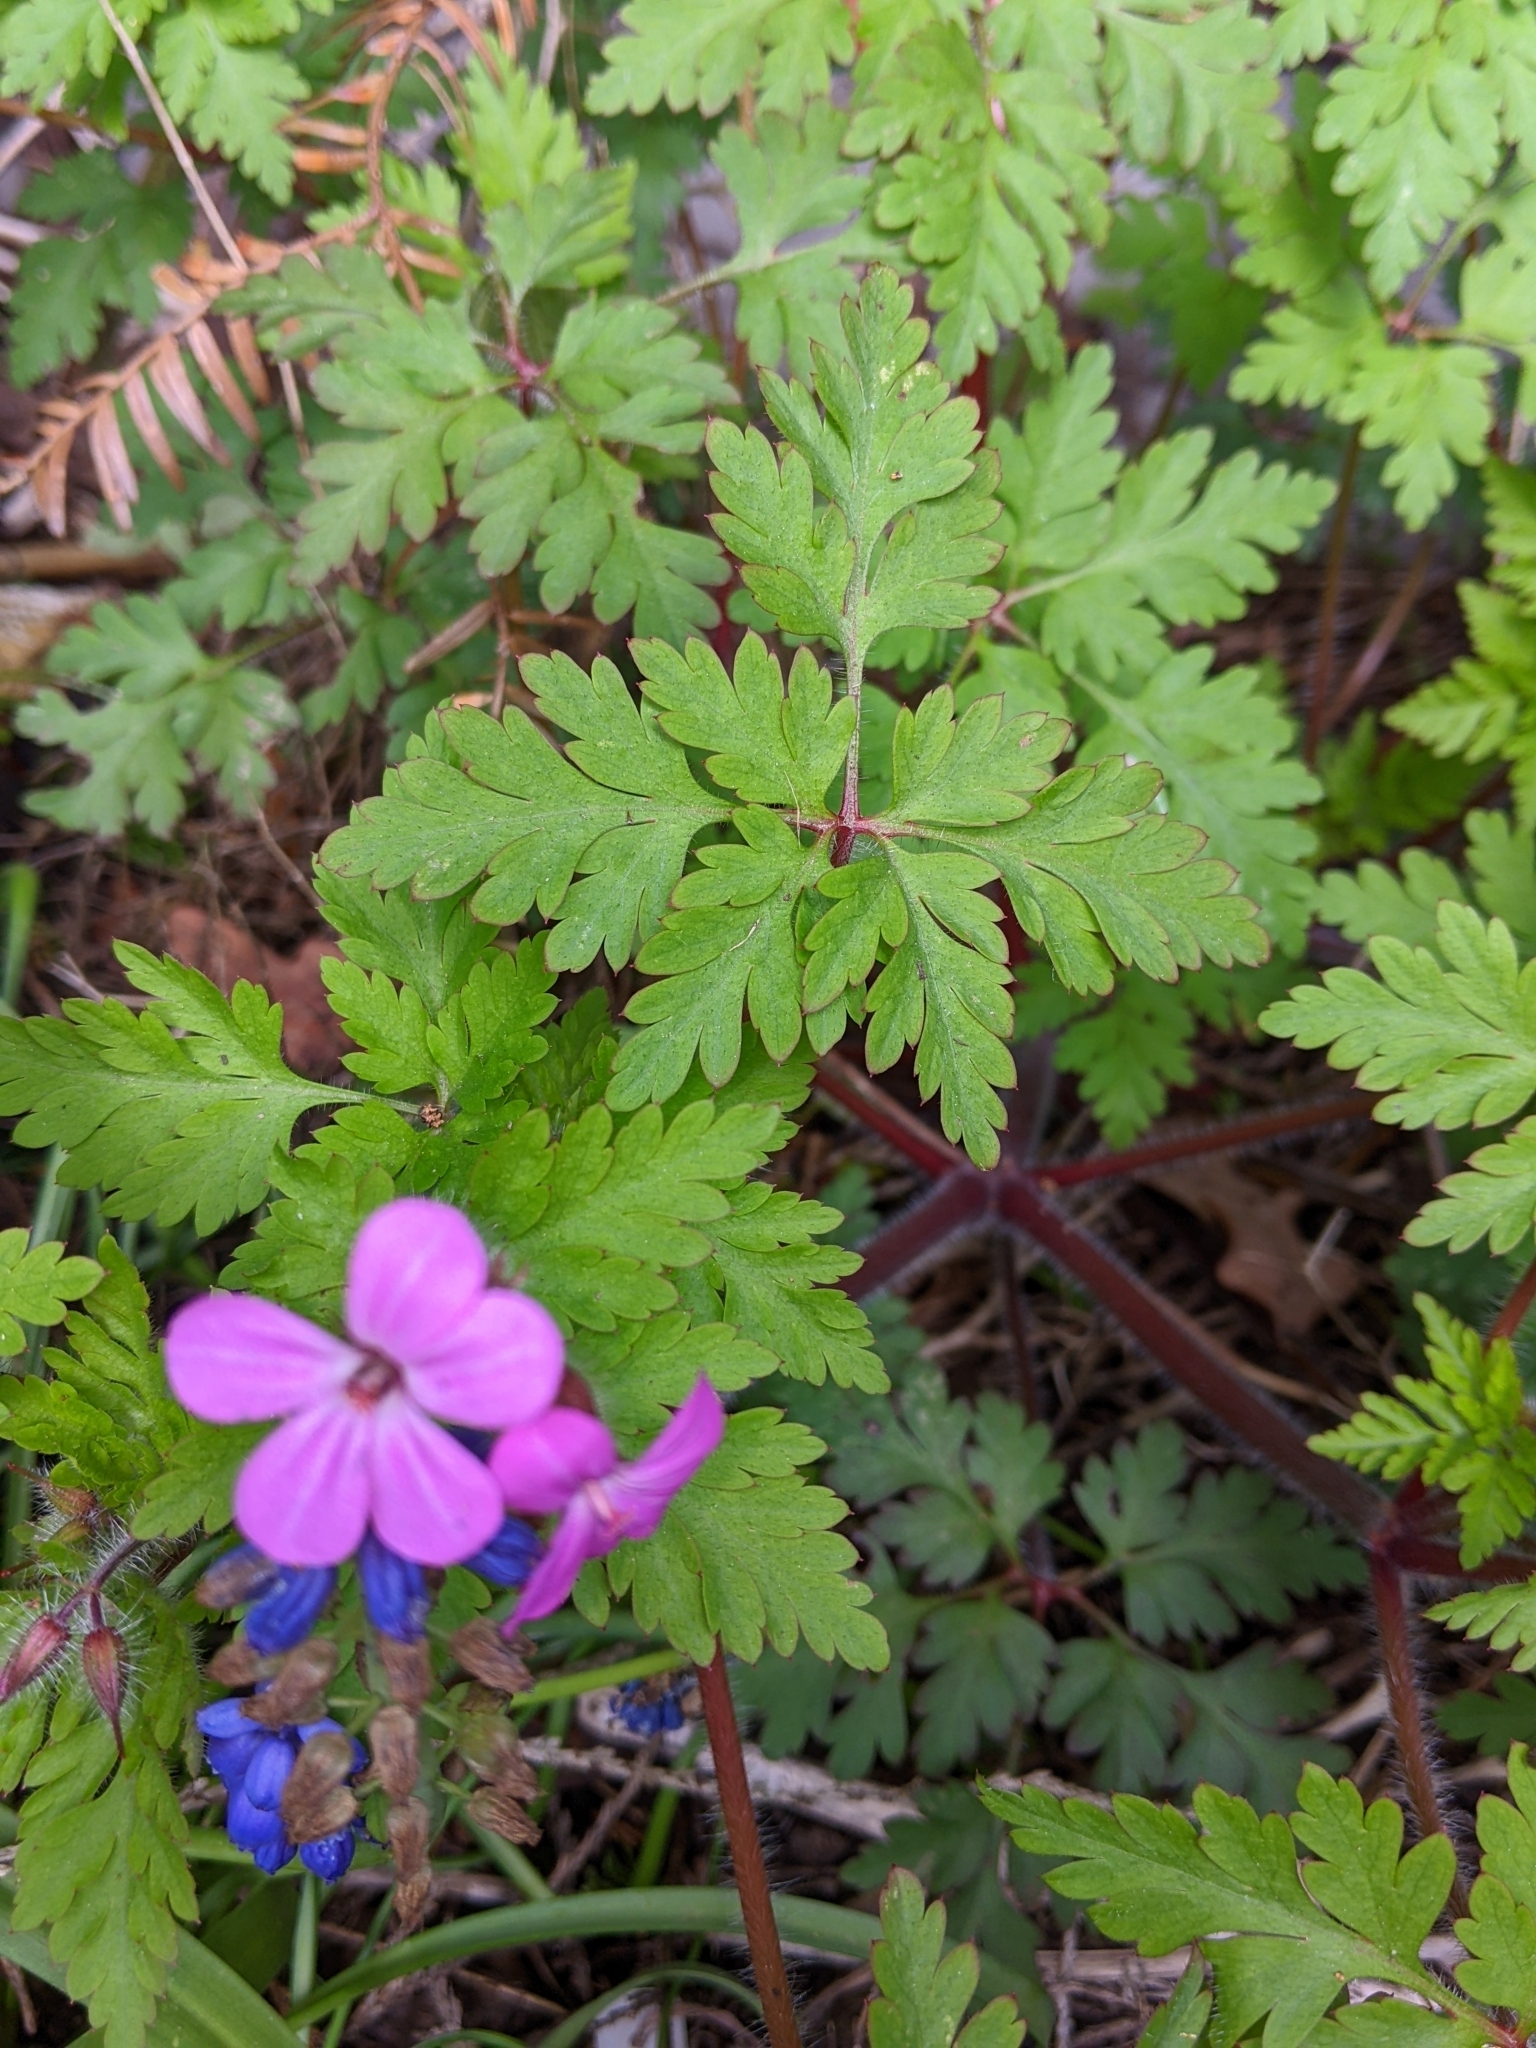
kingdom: Plantae
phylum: Tracheophyta
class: Magnoliopsida
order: Geraniales
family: Geraniaceae
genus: Geranium
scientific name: Geranium robertianum
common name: Herb-robert
